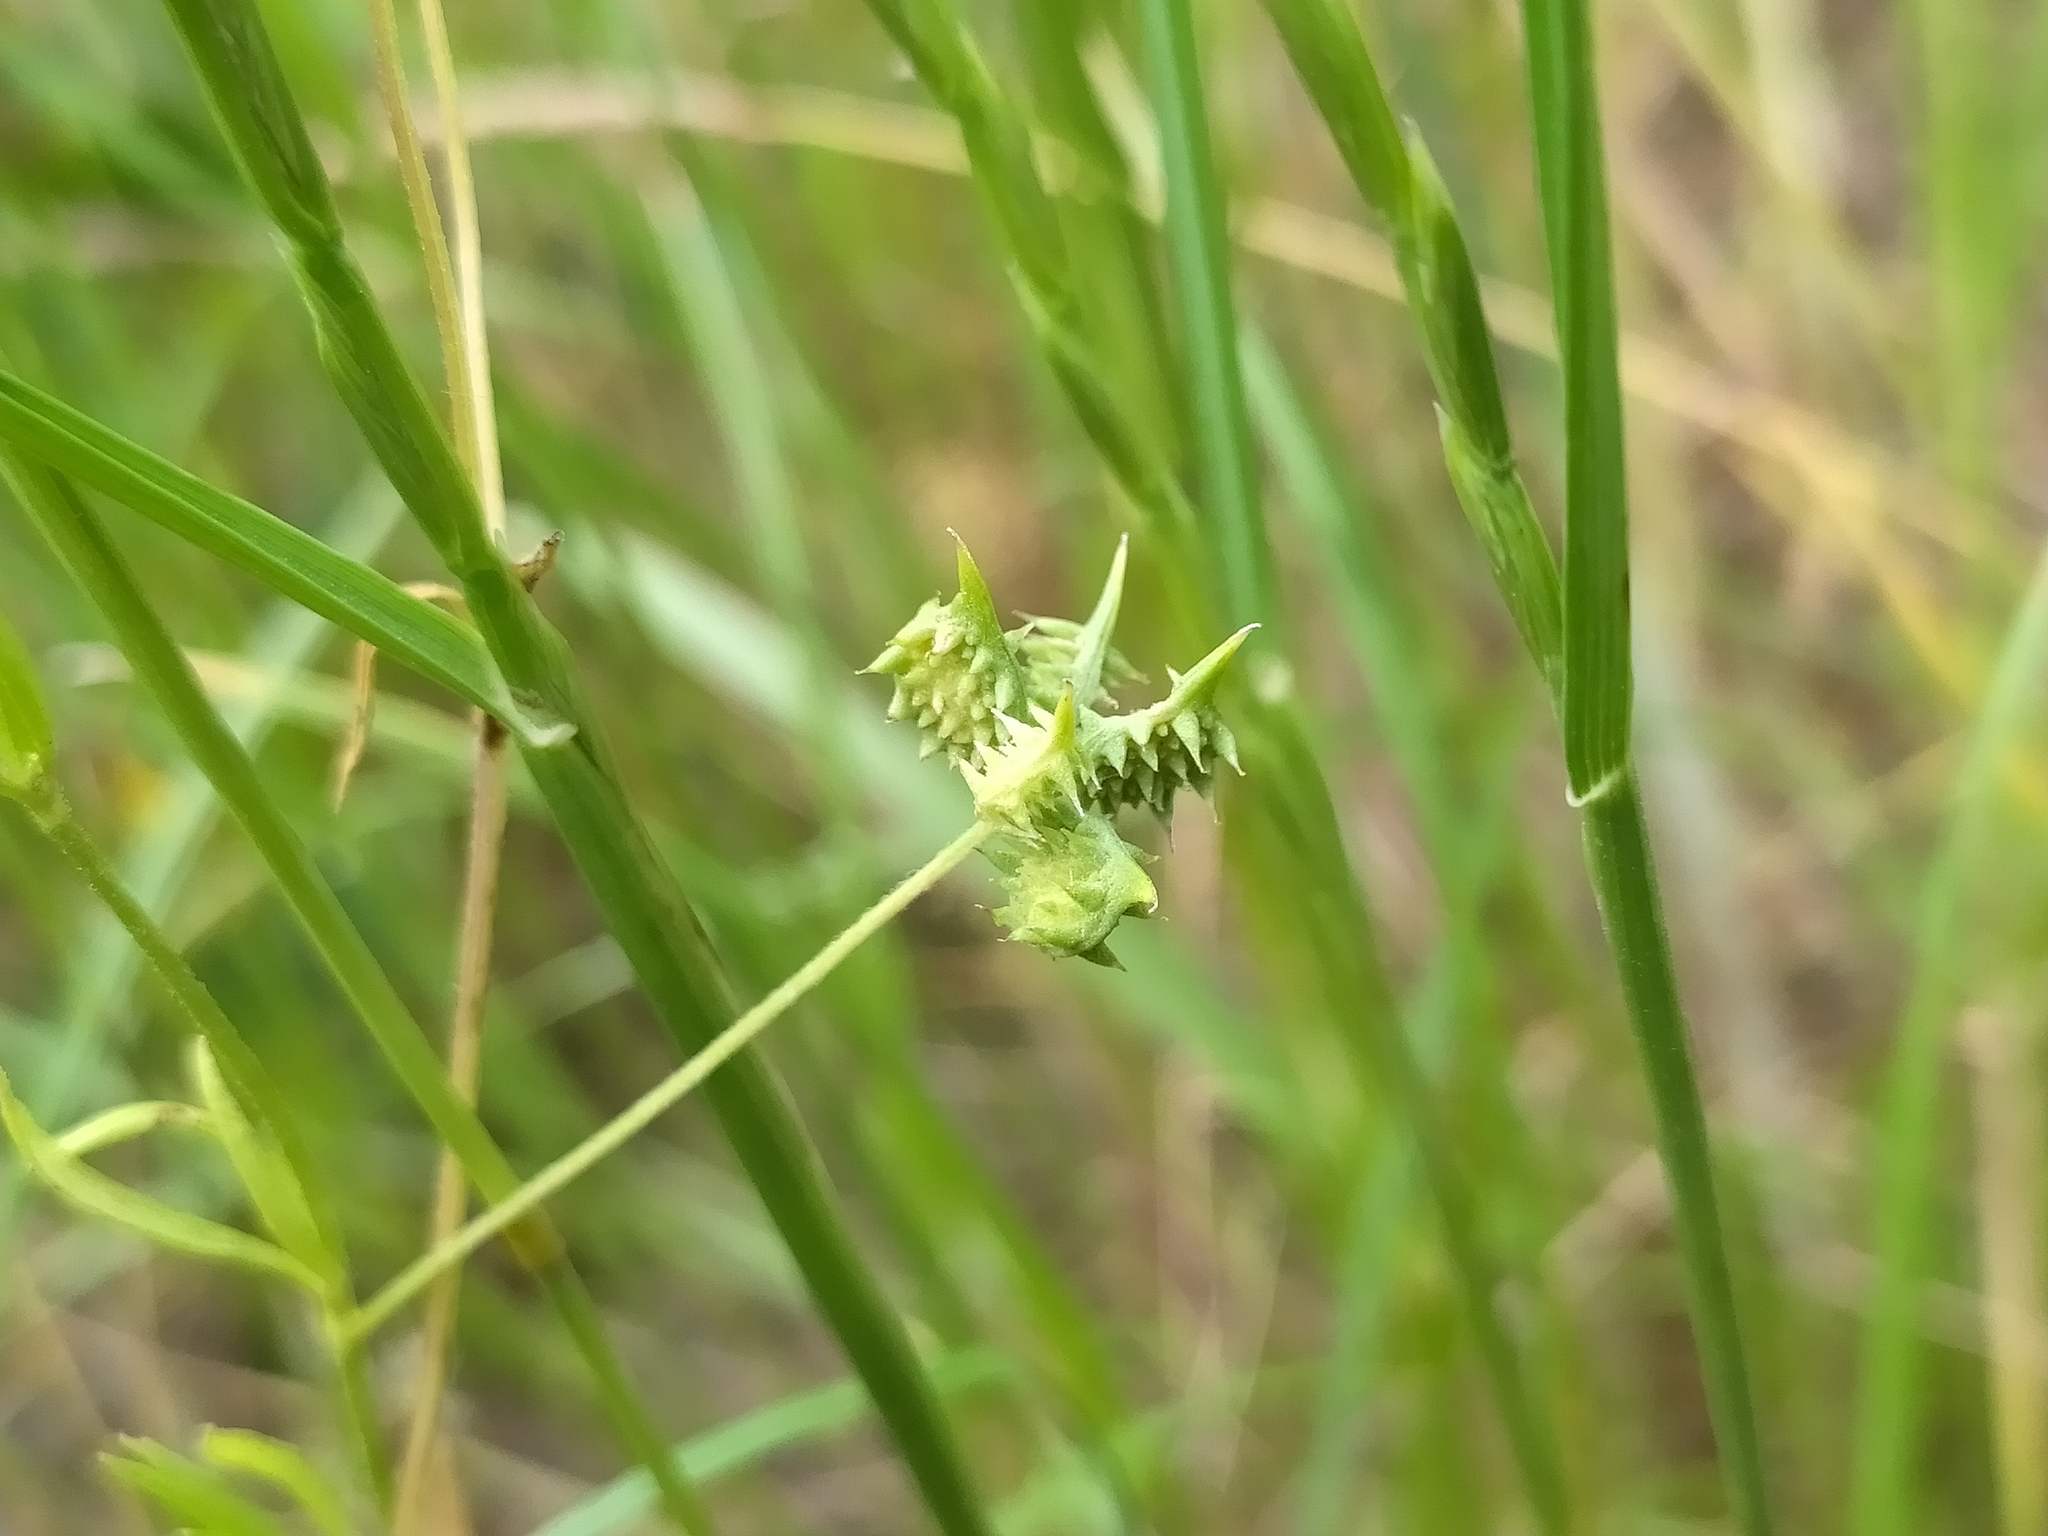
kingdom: Plantae
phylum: Tracheophyta
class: Magnoliopsida
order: Ranunculales
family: Ranunculaceae
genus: Ranunculus
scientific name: Ranunculus arvensis
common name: Corn buttercup
